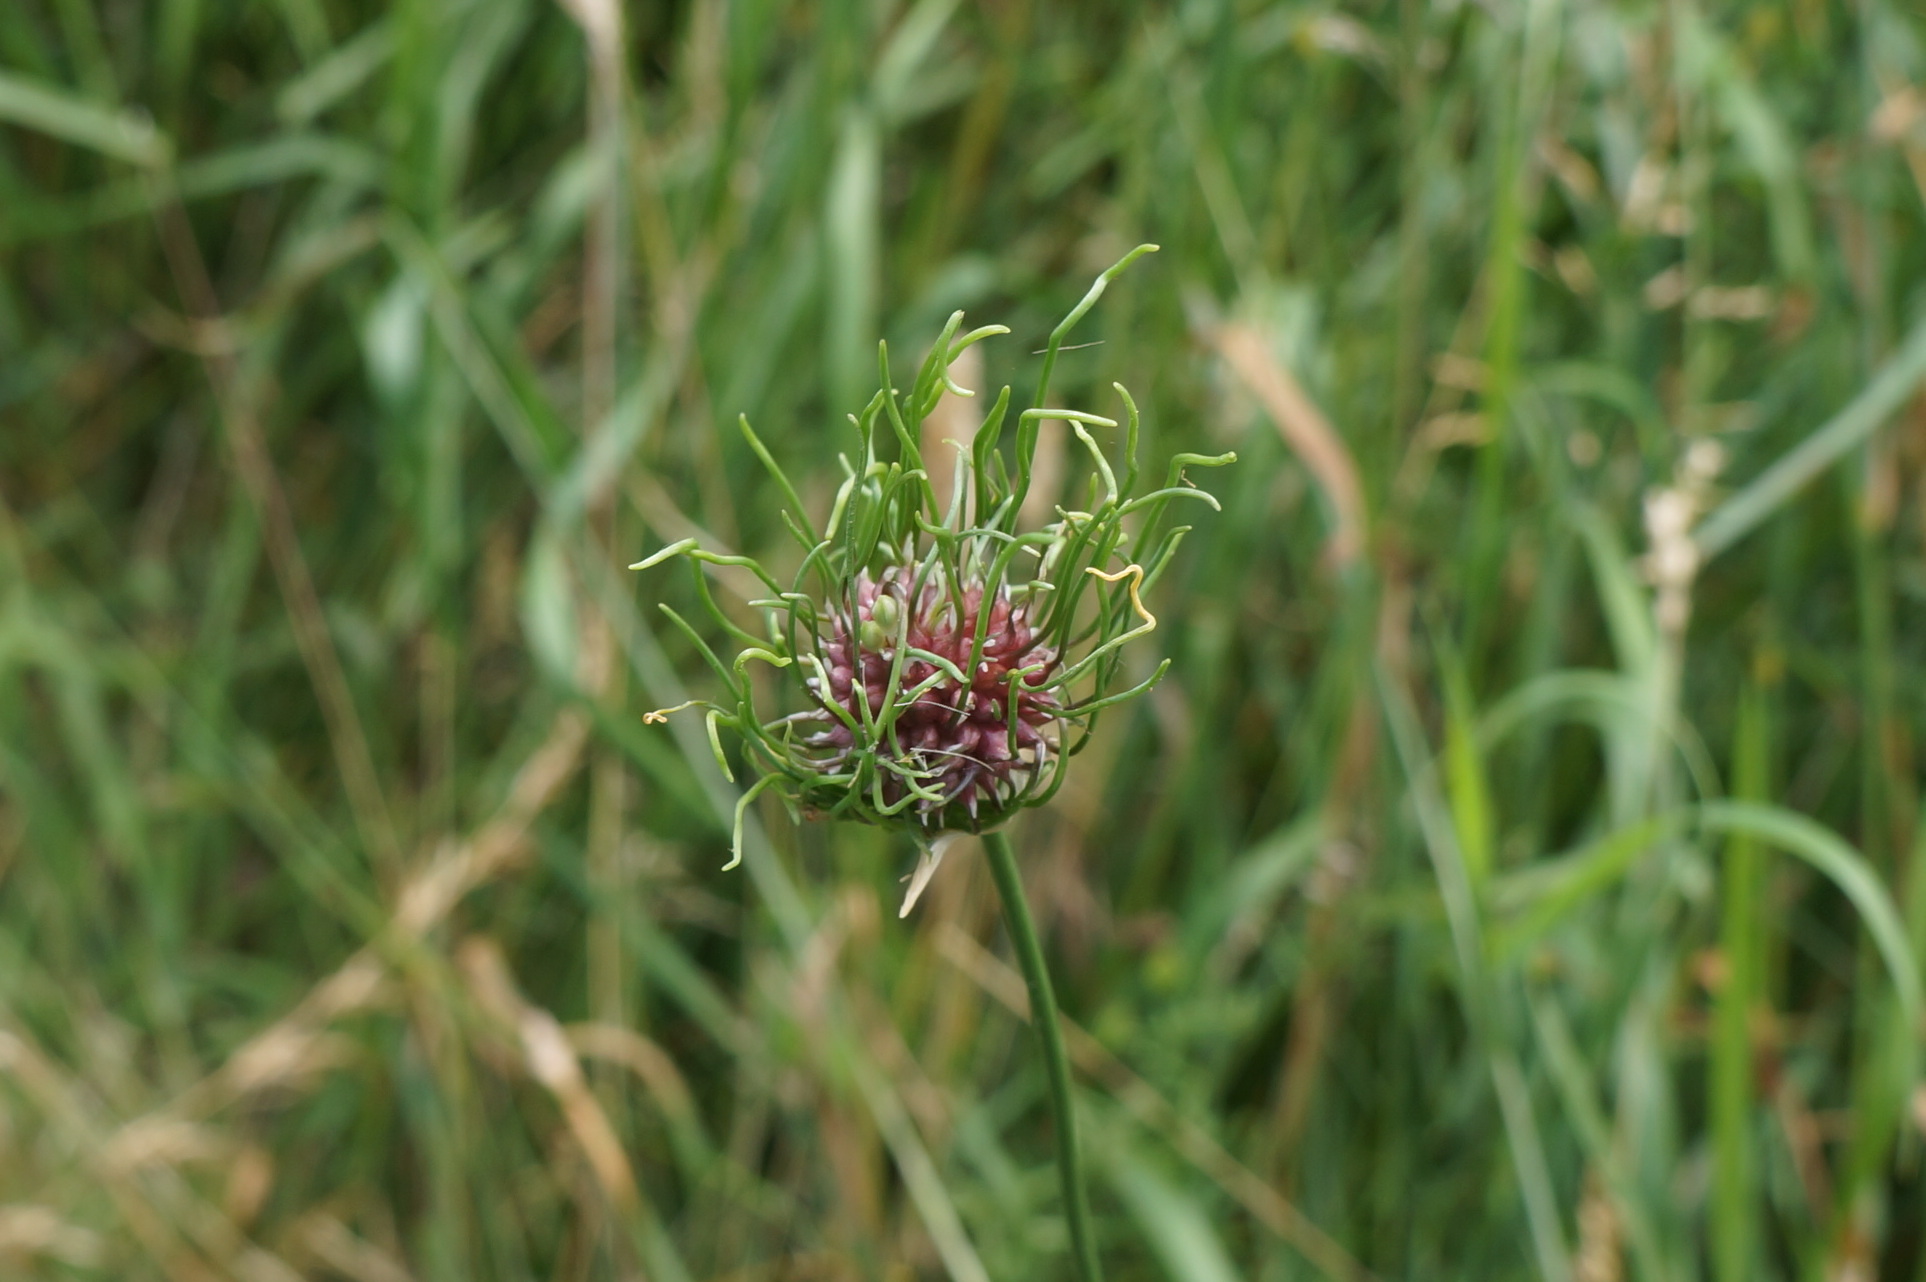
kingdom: Plantae
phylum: Tracheophyta
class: Liliopsida
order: Asparagales
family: Amaryllidaceae
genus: Allium
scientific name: Allium vineale
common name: Crow garlic
